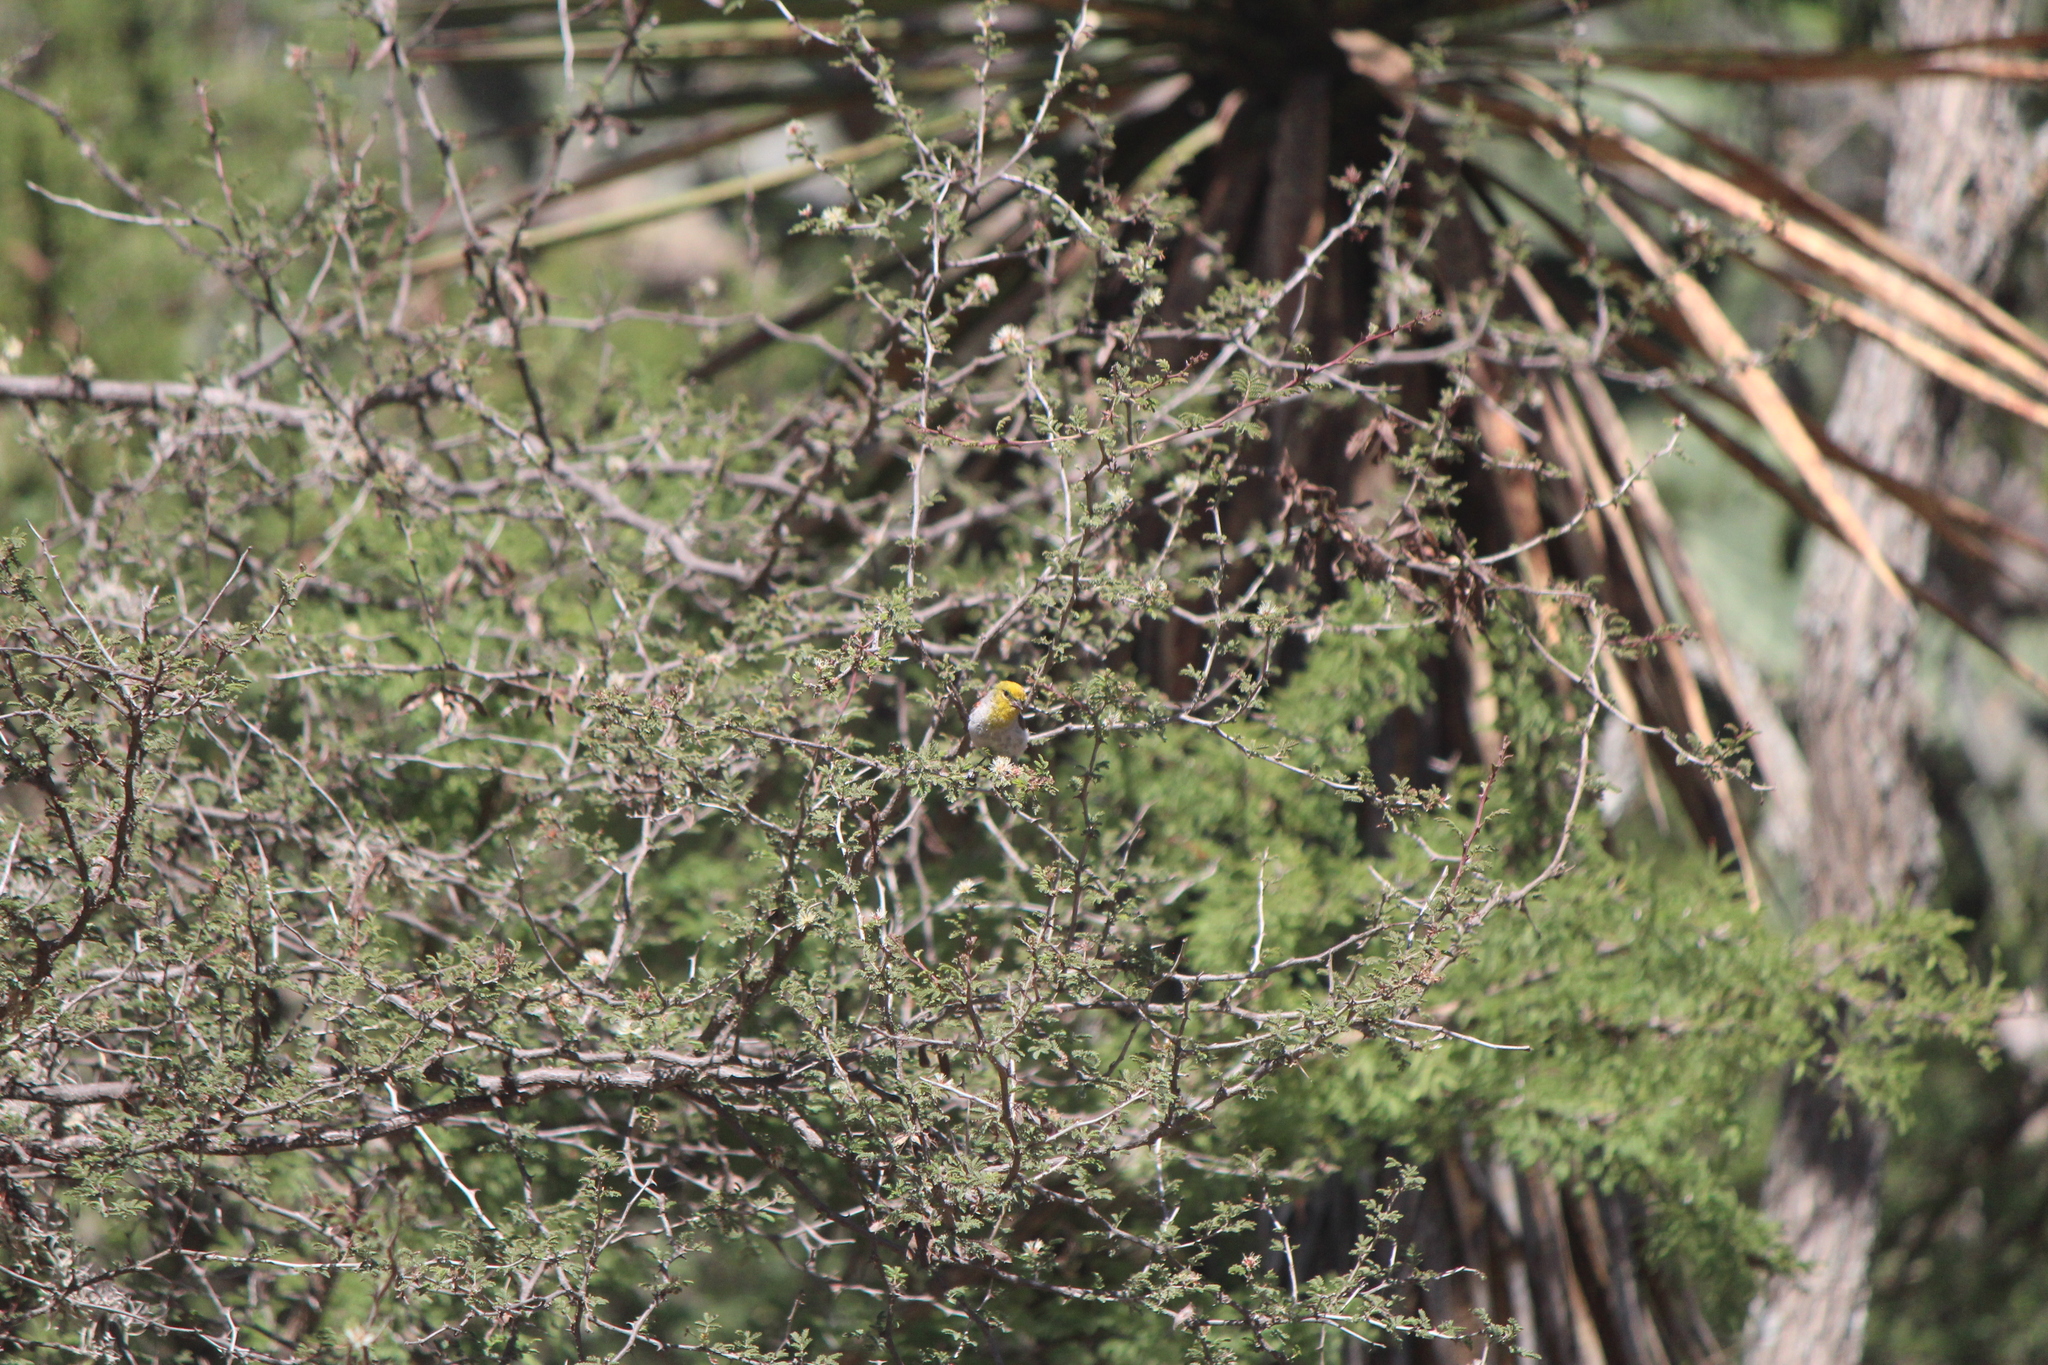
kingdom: Animalia
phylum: Chordata
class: Aves
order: Passeriformes
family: Remizidae
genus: Auriparus
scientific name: Auriparus flaviceps
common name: Verdin
